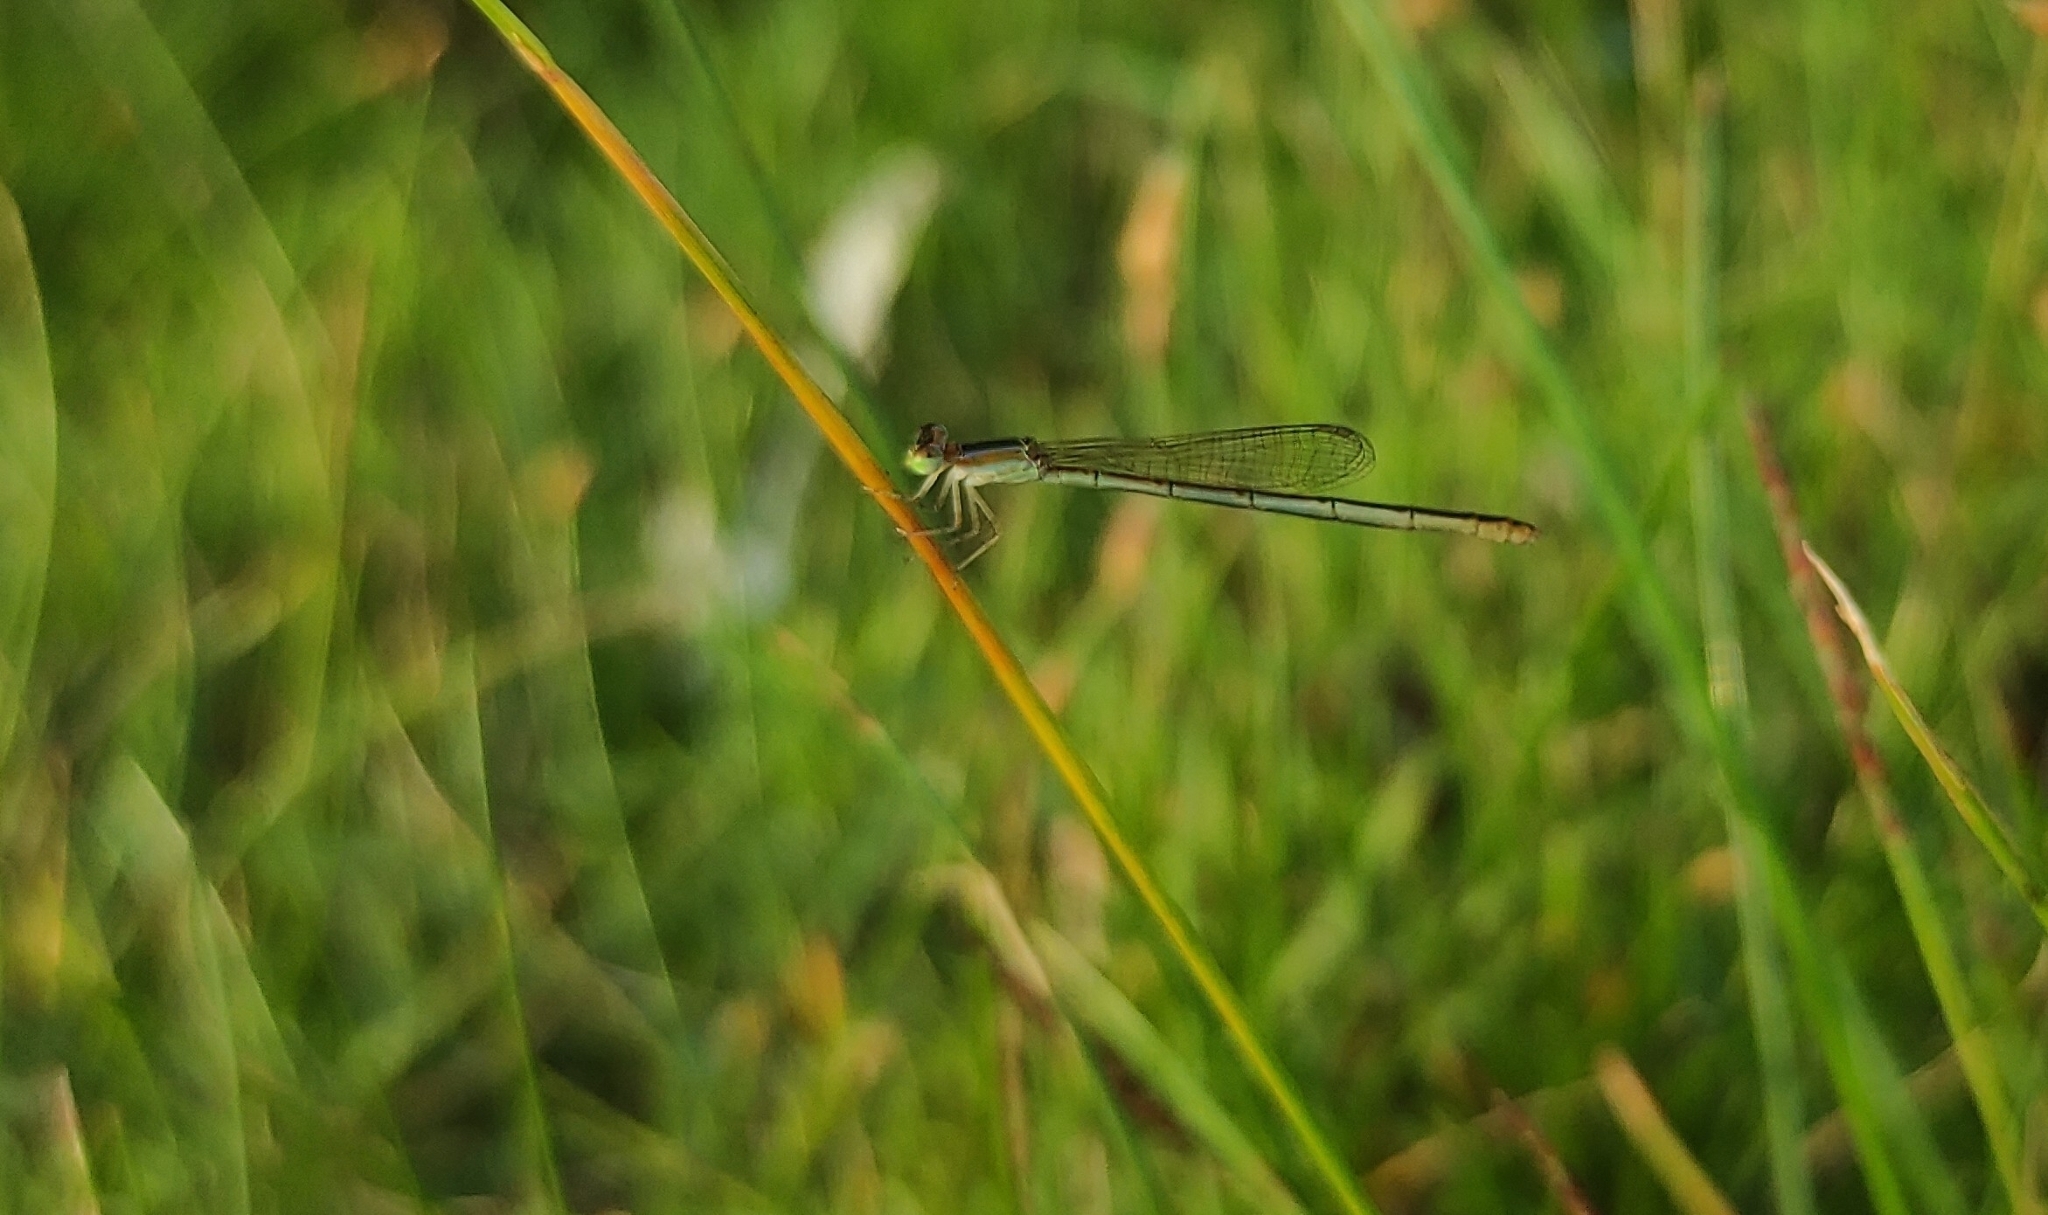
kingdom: Animalia
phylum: Arthropoda
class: Insecta
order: Odonata
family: Coenagrionidae
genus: Agriocnemis
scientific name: Agriocnemis pygmaea
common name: Pygmy wisp
